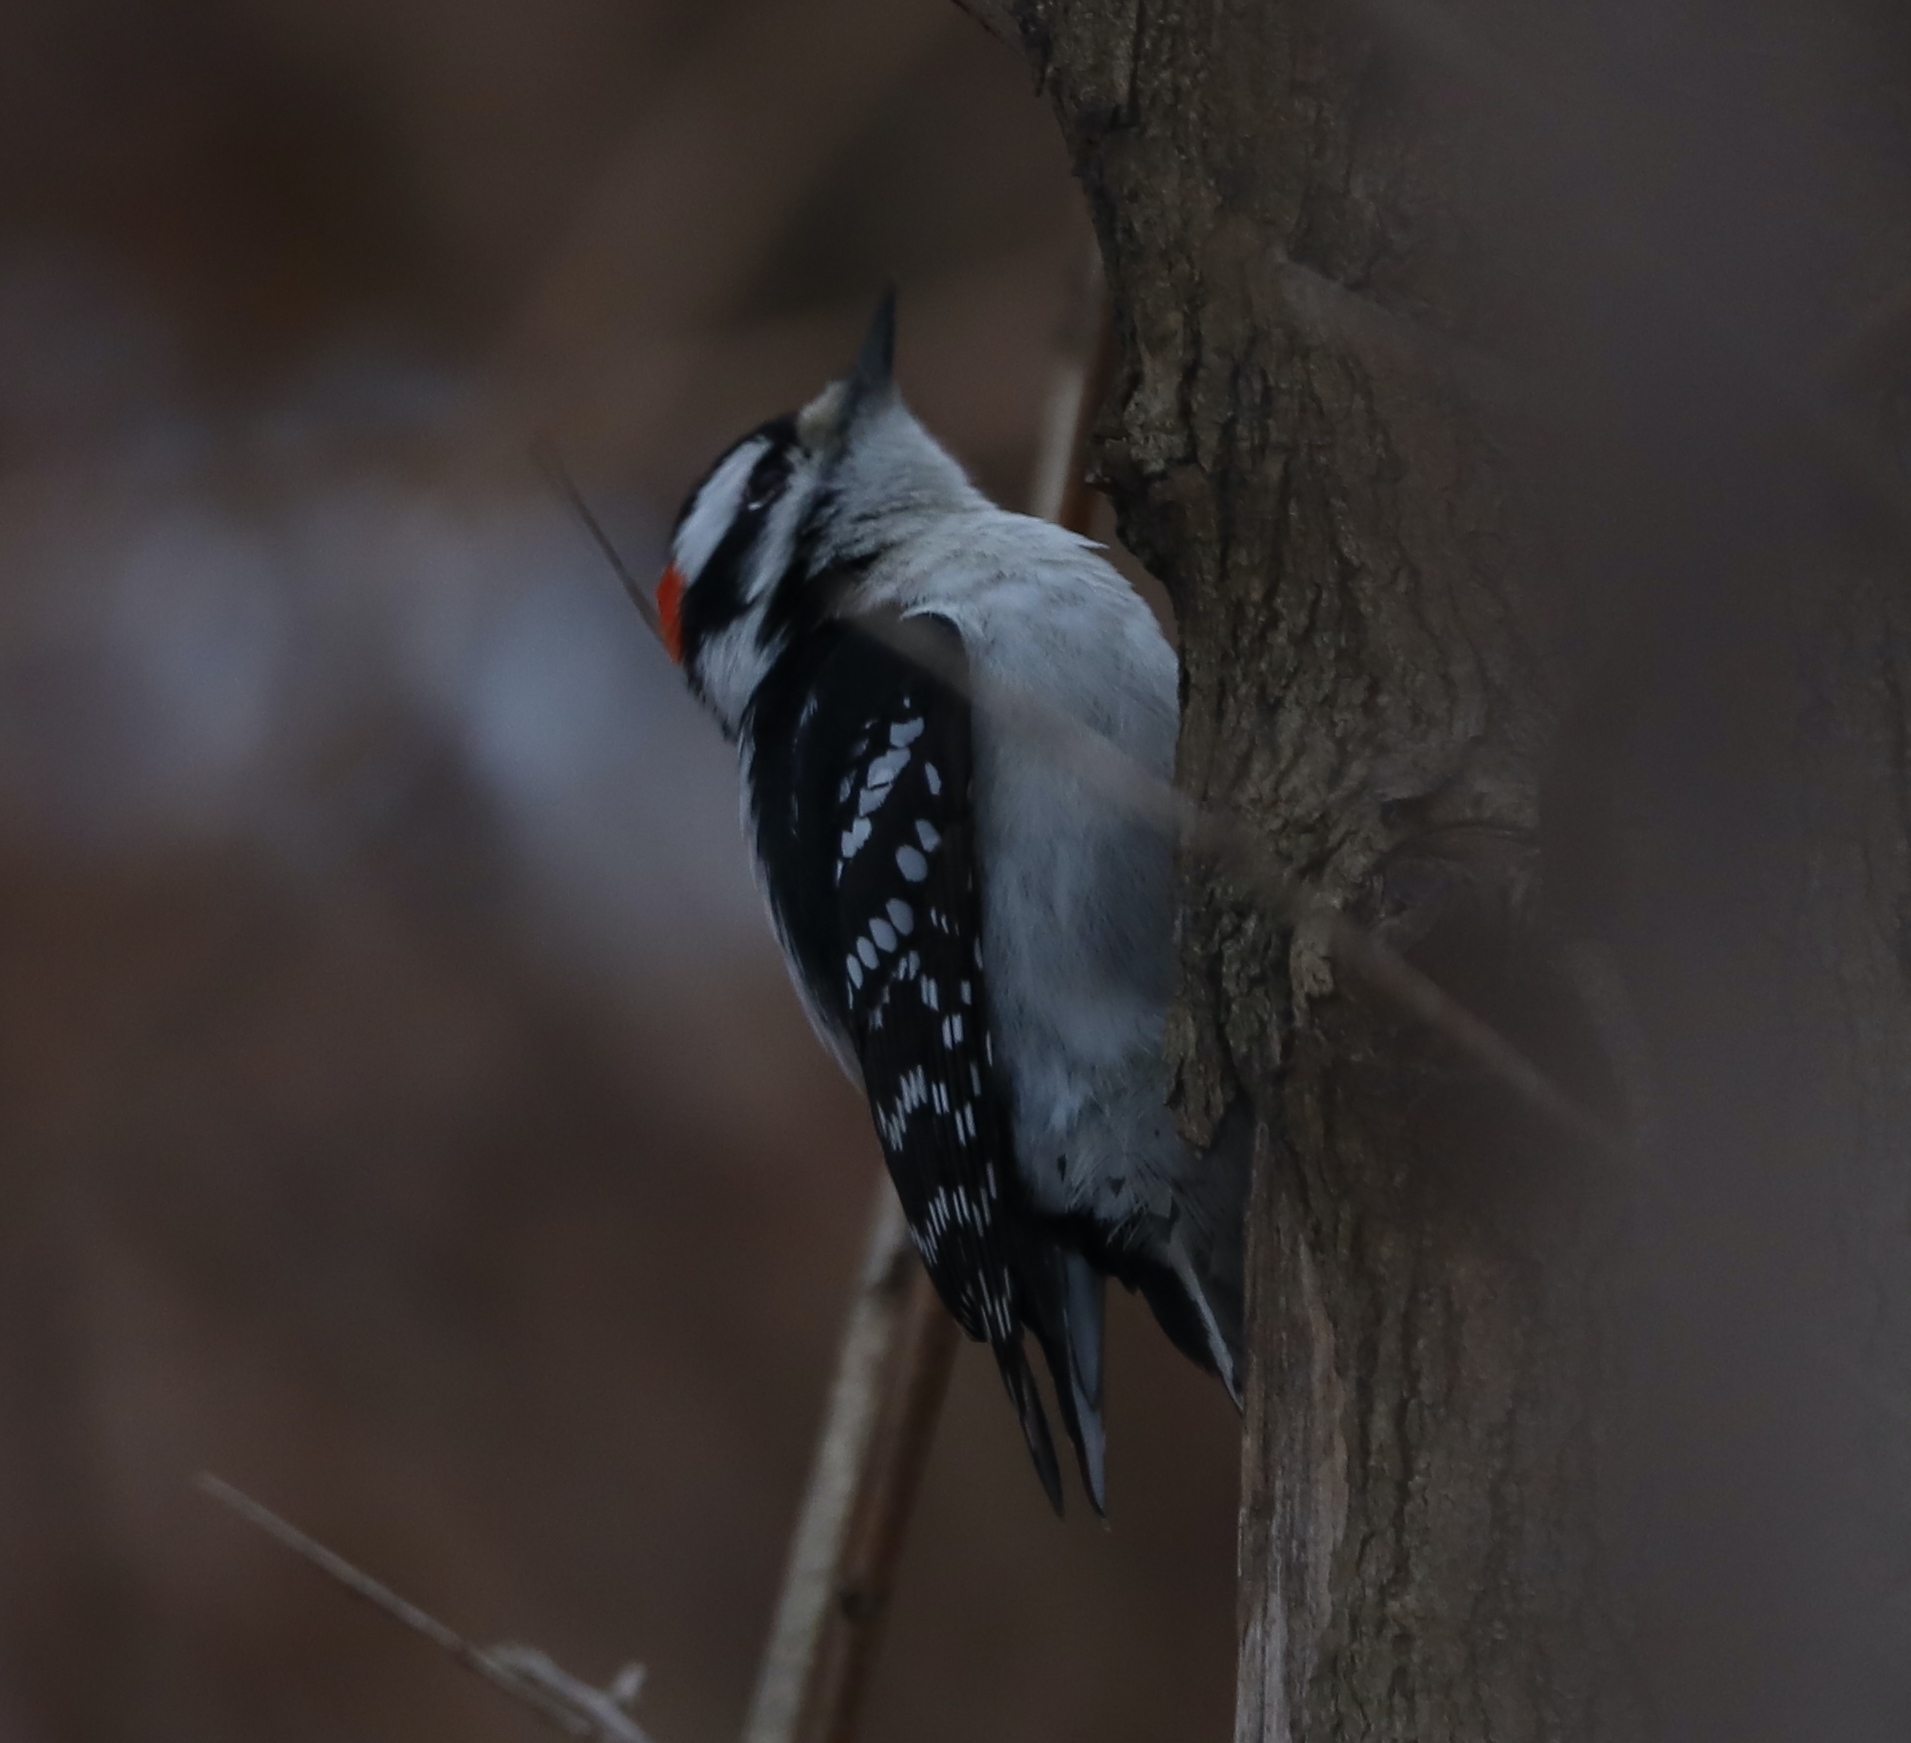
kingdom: Animalia
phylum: Chordata
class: Aves
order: Piciformes
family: Picidae
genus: Dryobates
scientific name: Dryobates pubescens
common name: Downy woodpecker
